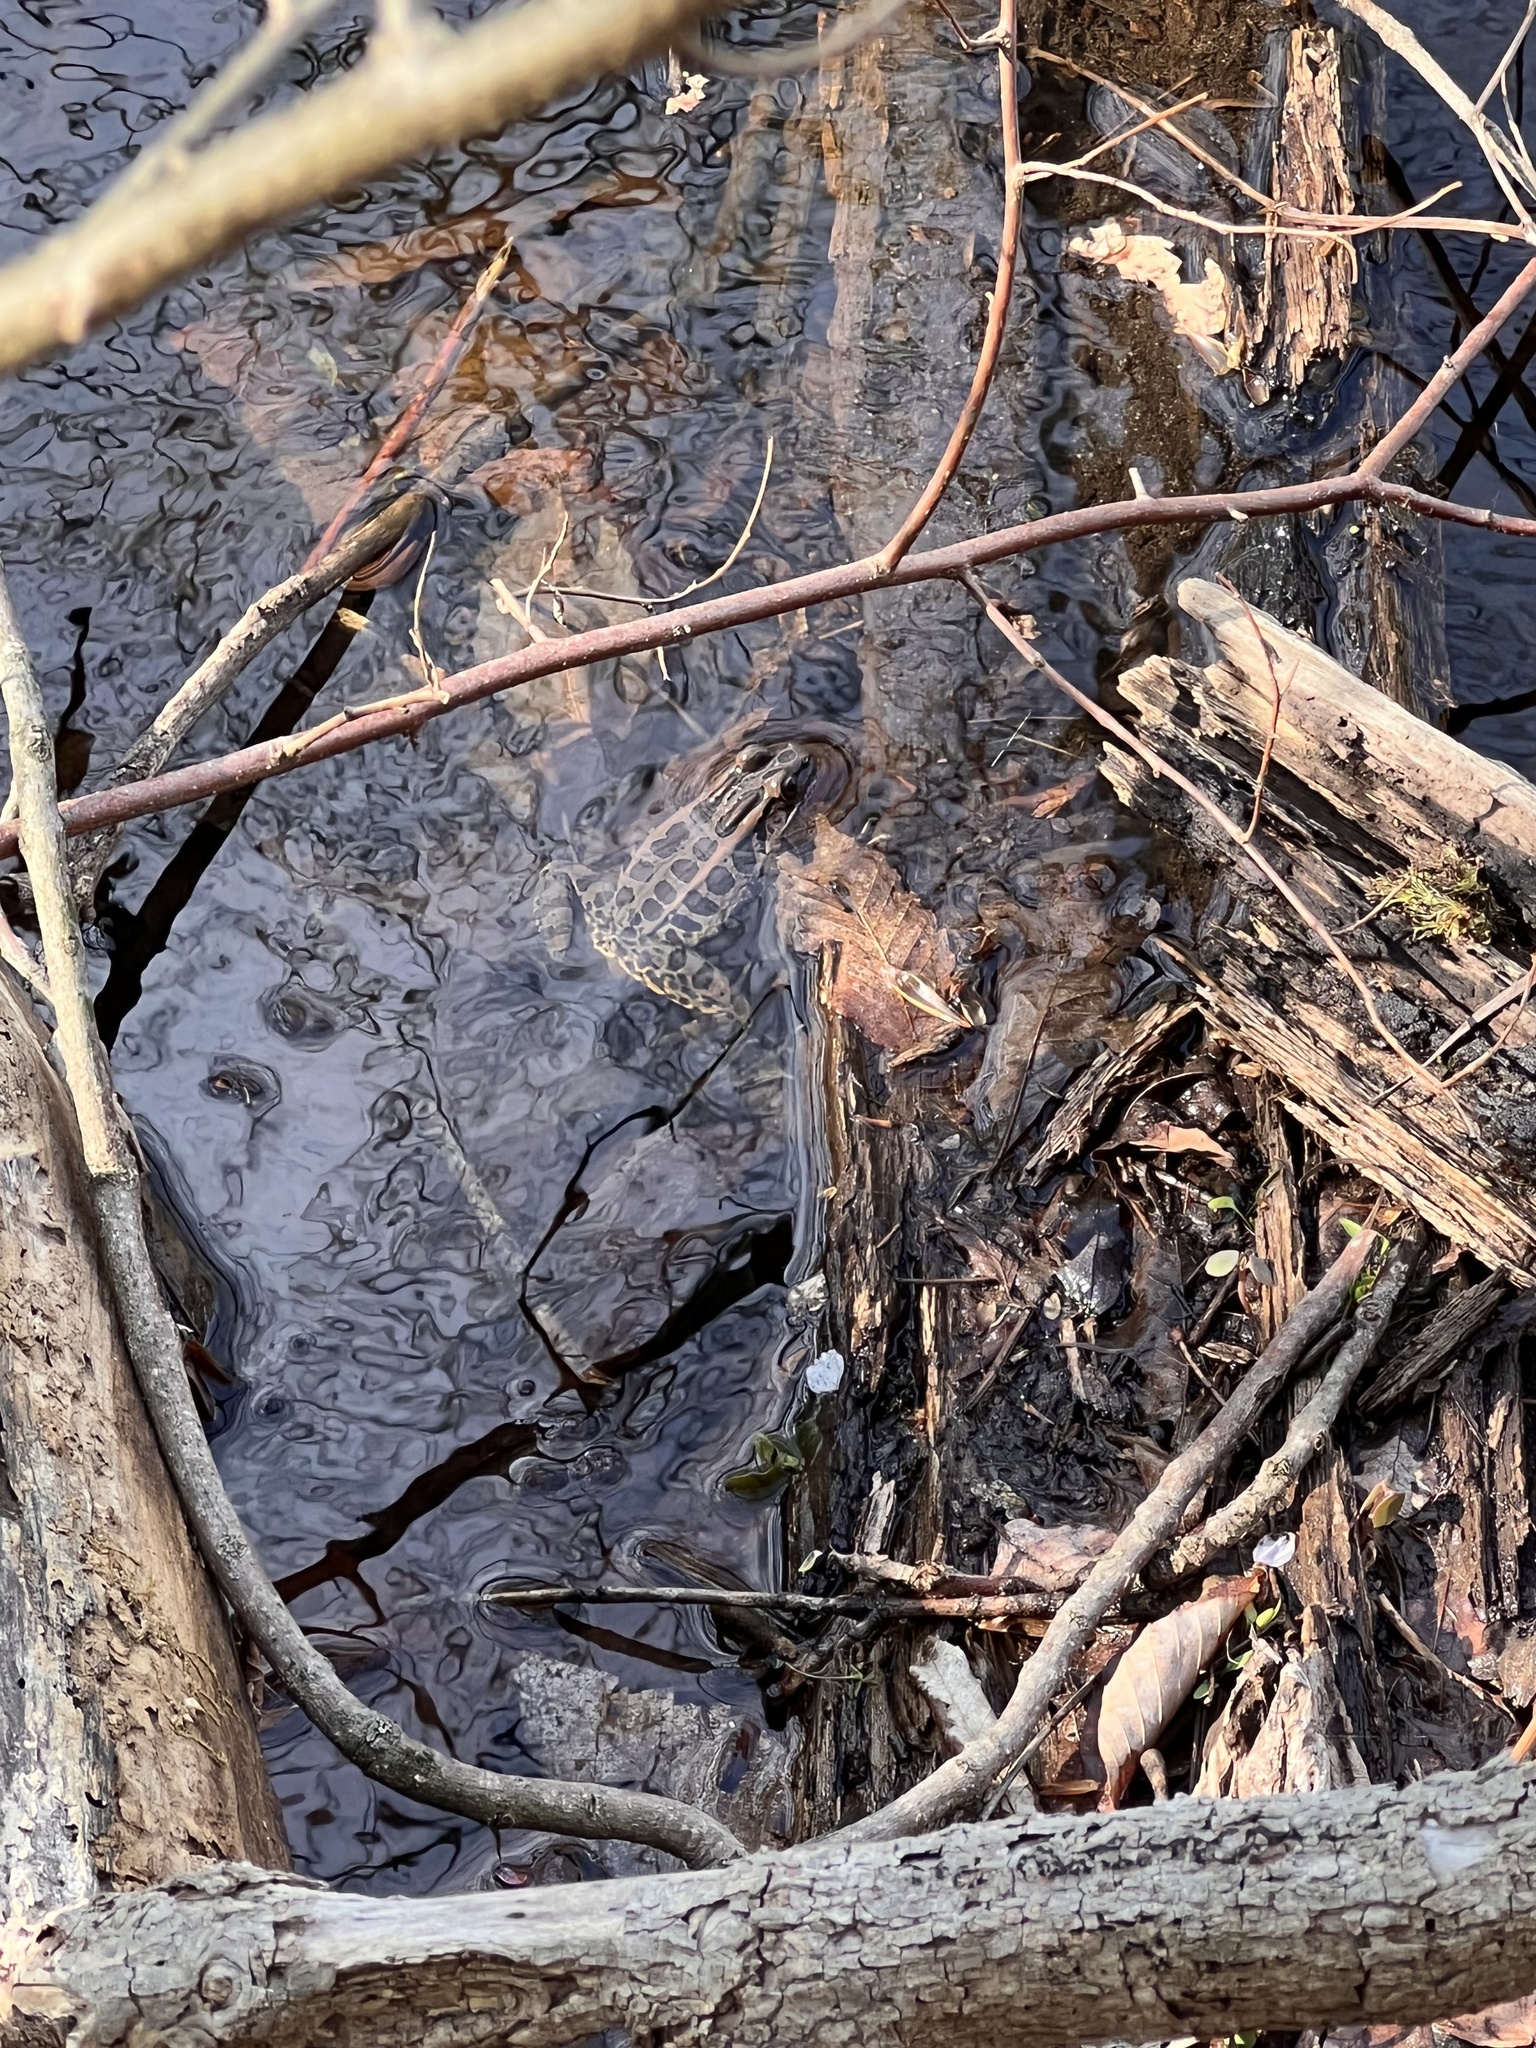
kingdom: Animalia
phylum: Chordata
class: Amphibia
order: Anura
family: Ranidae
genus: Lithobates
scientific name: Lithobates palustris
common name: Pickerel frog
